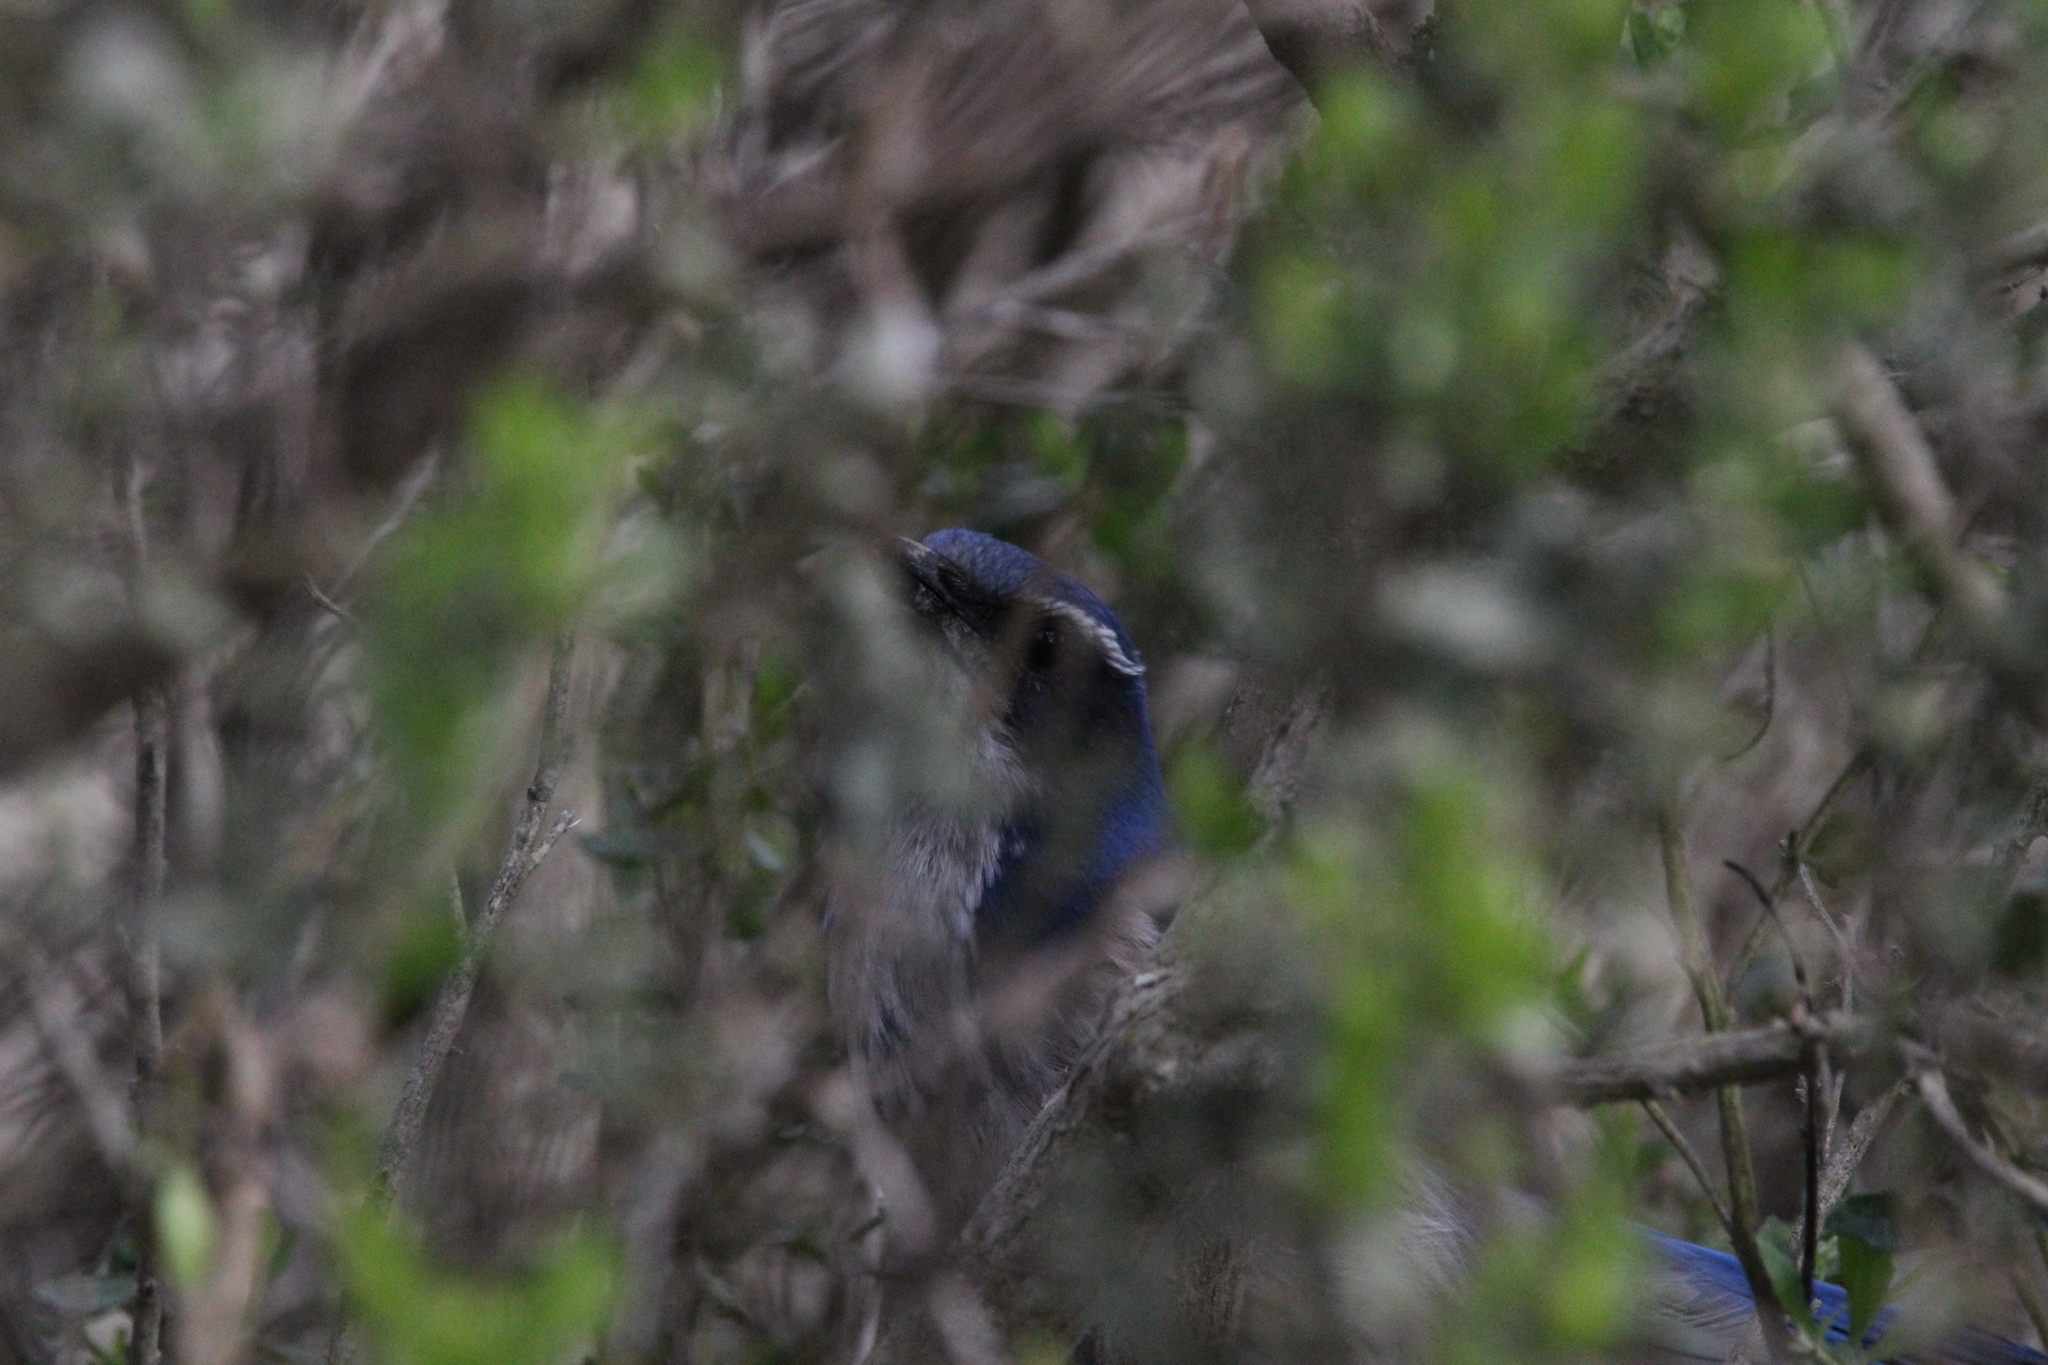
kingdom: Animalia
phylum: Chordata
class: Aves
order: Passeriformes
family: Corvidae
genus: Aphelocoma
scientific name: Aphelocoma californica
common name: California scrub-jay
